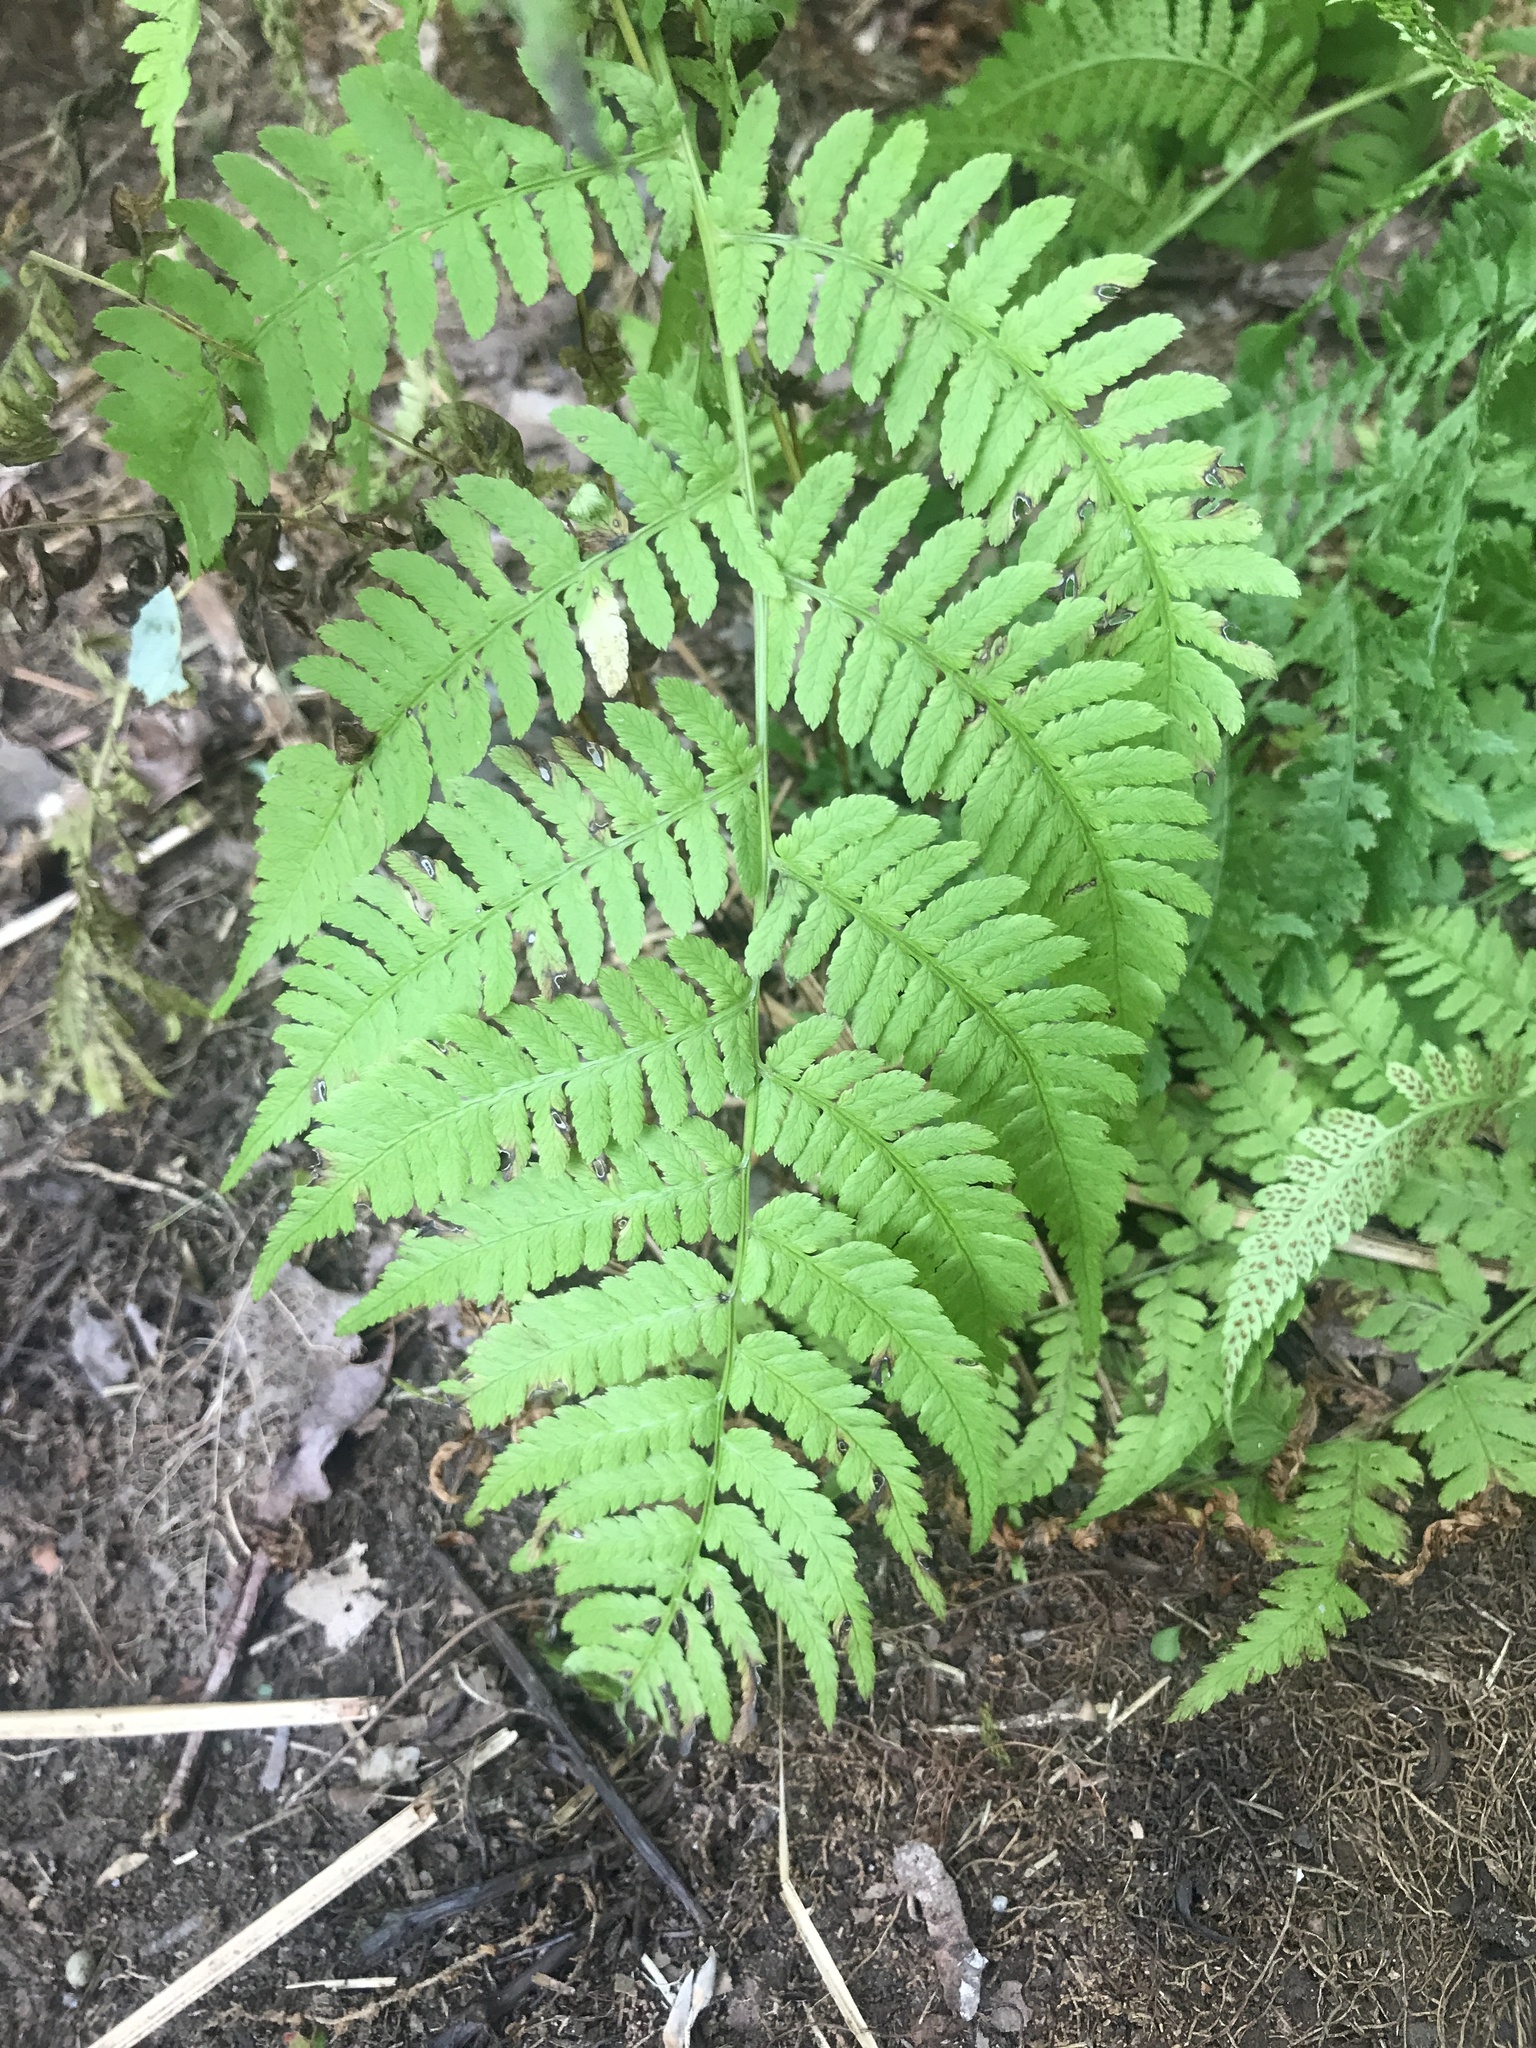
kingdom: Plantae
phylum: Tracheophyta
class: Polypodiopsida
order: Polypodiales
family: Athyriaceae
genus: Athyrium
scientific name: Athyrium angustum
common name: Northern lady fern
